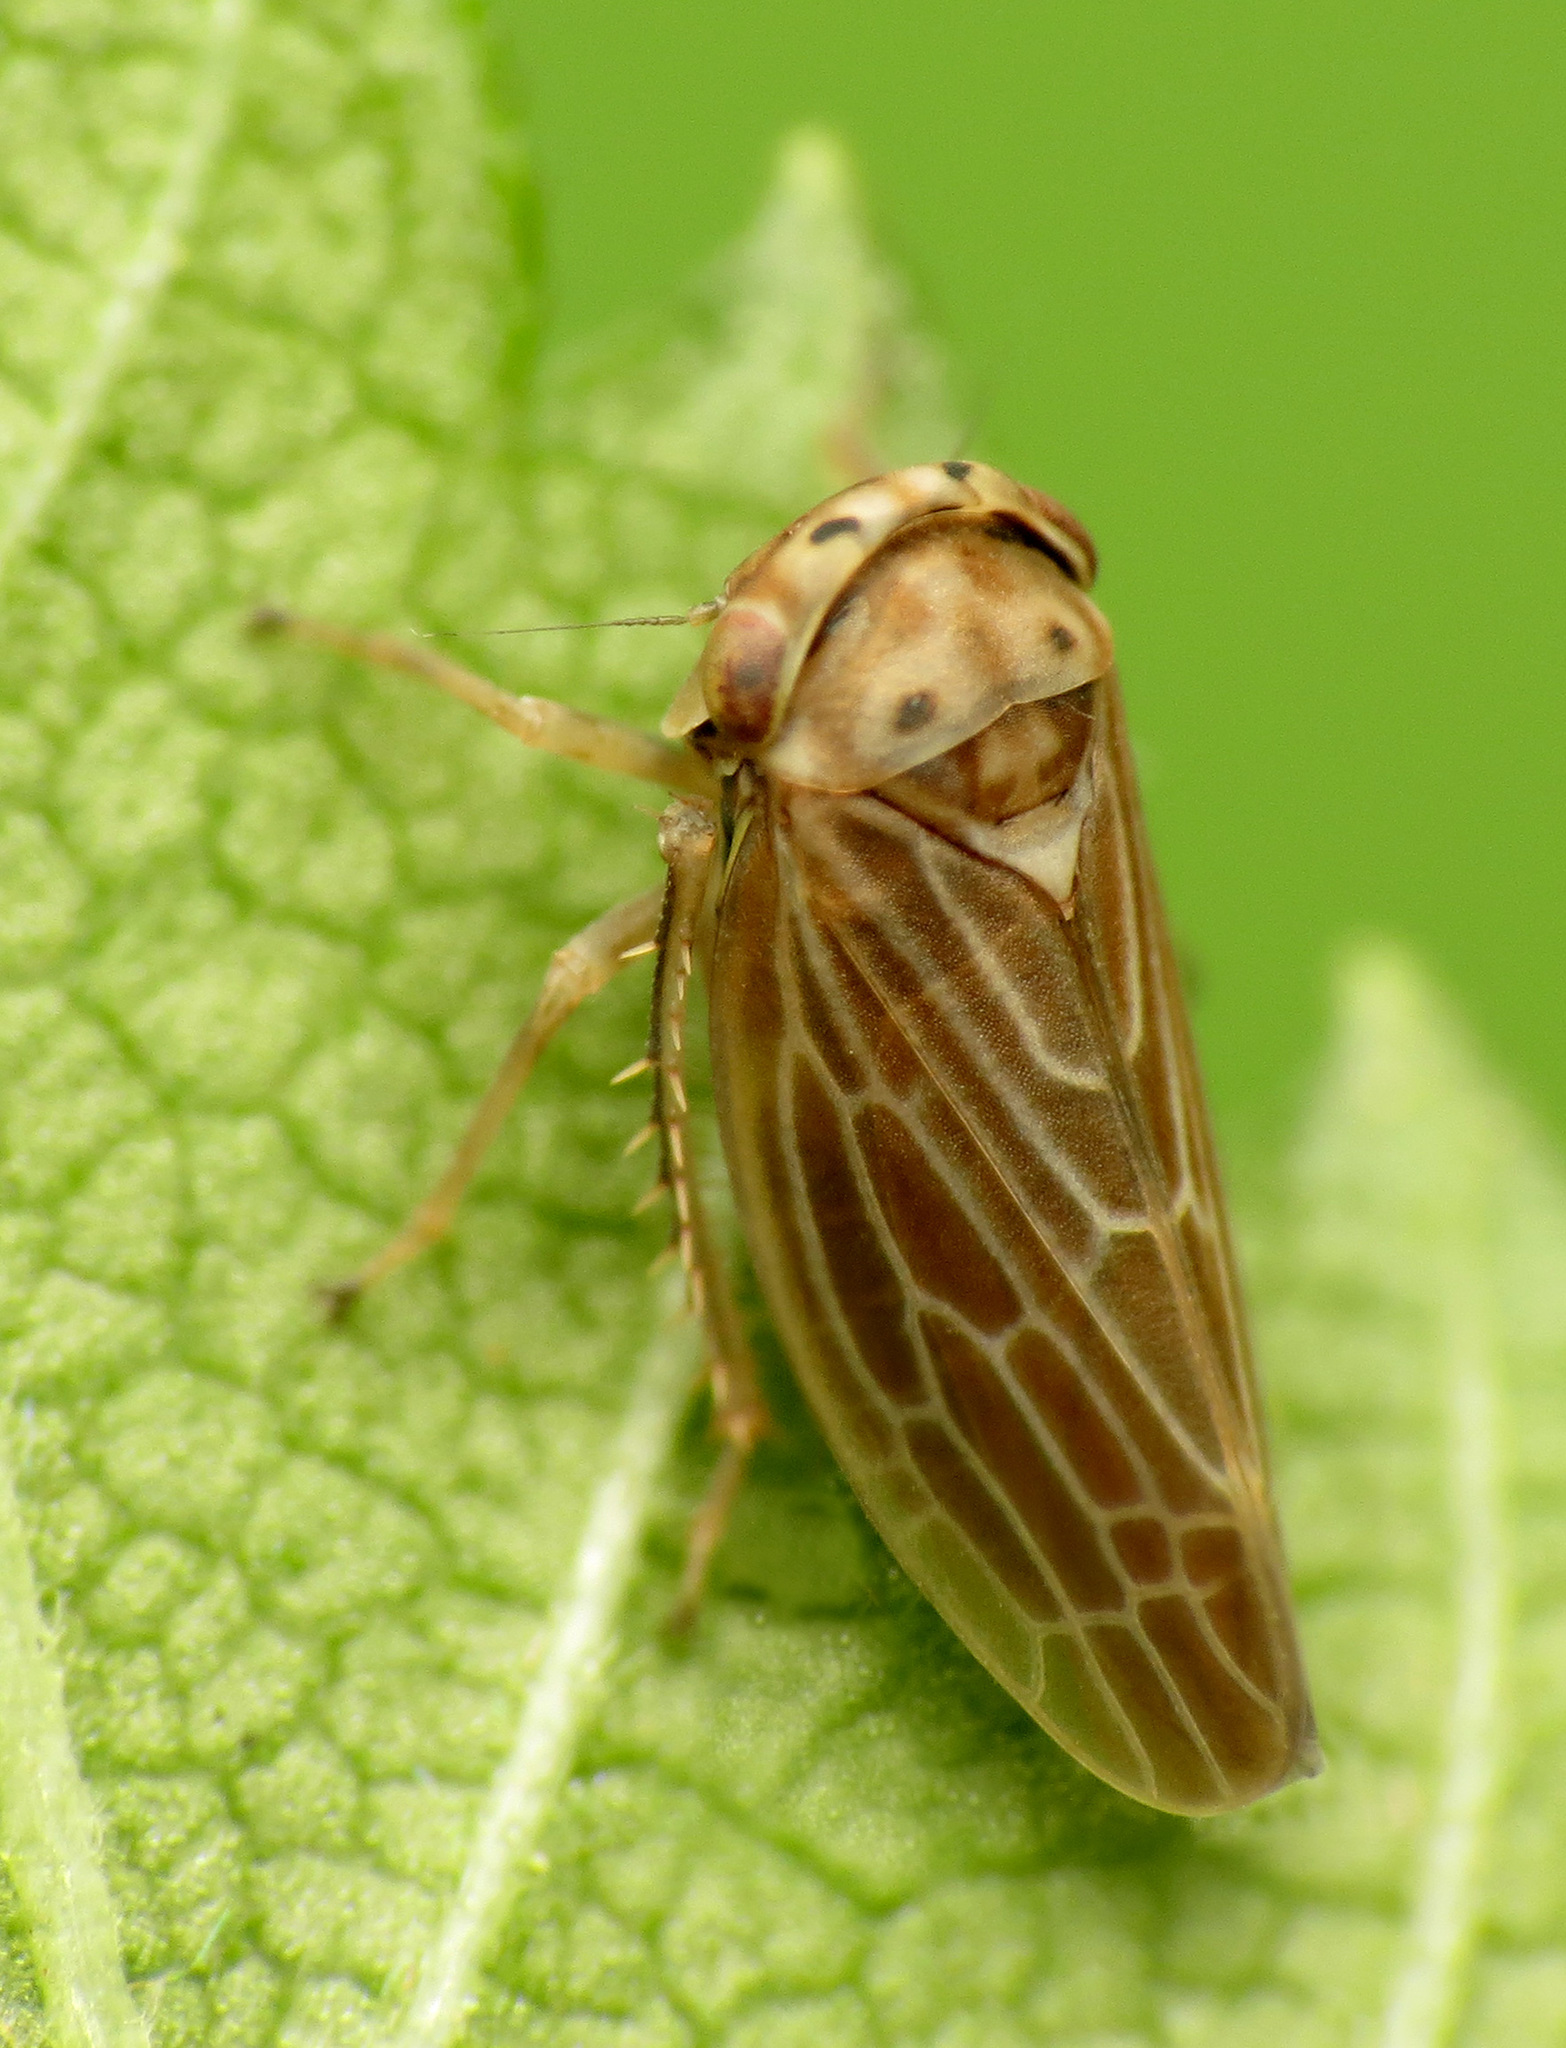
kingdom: Animalia
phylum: Arthropoda
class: Insecta
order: Hemiptera
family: Cicadellidae
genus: Agalliota
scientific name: Agalliota quadripunctata
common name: The four-spotted clover leafhopper
